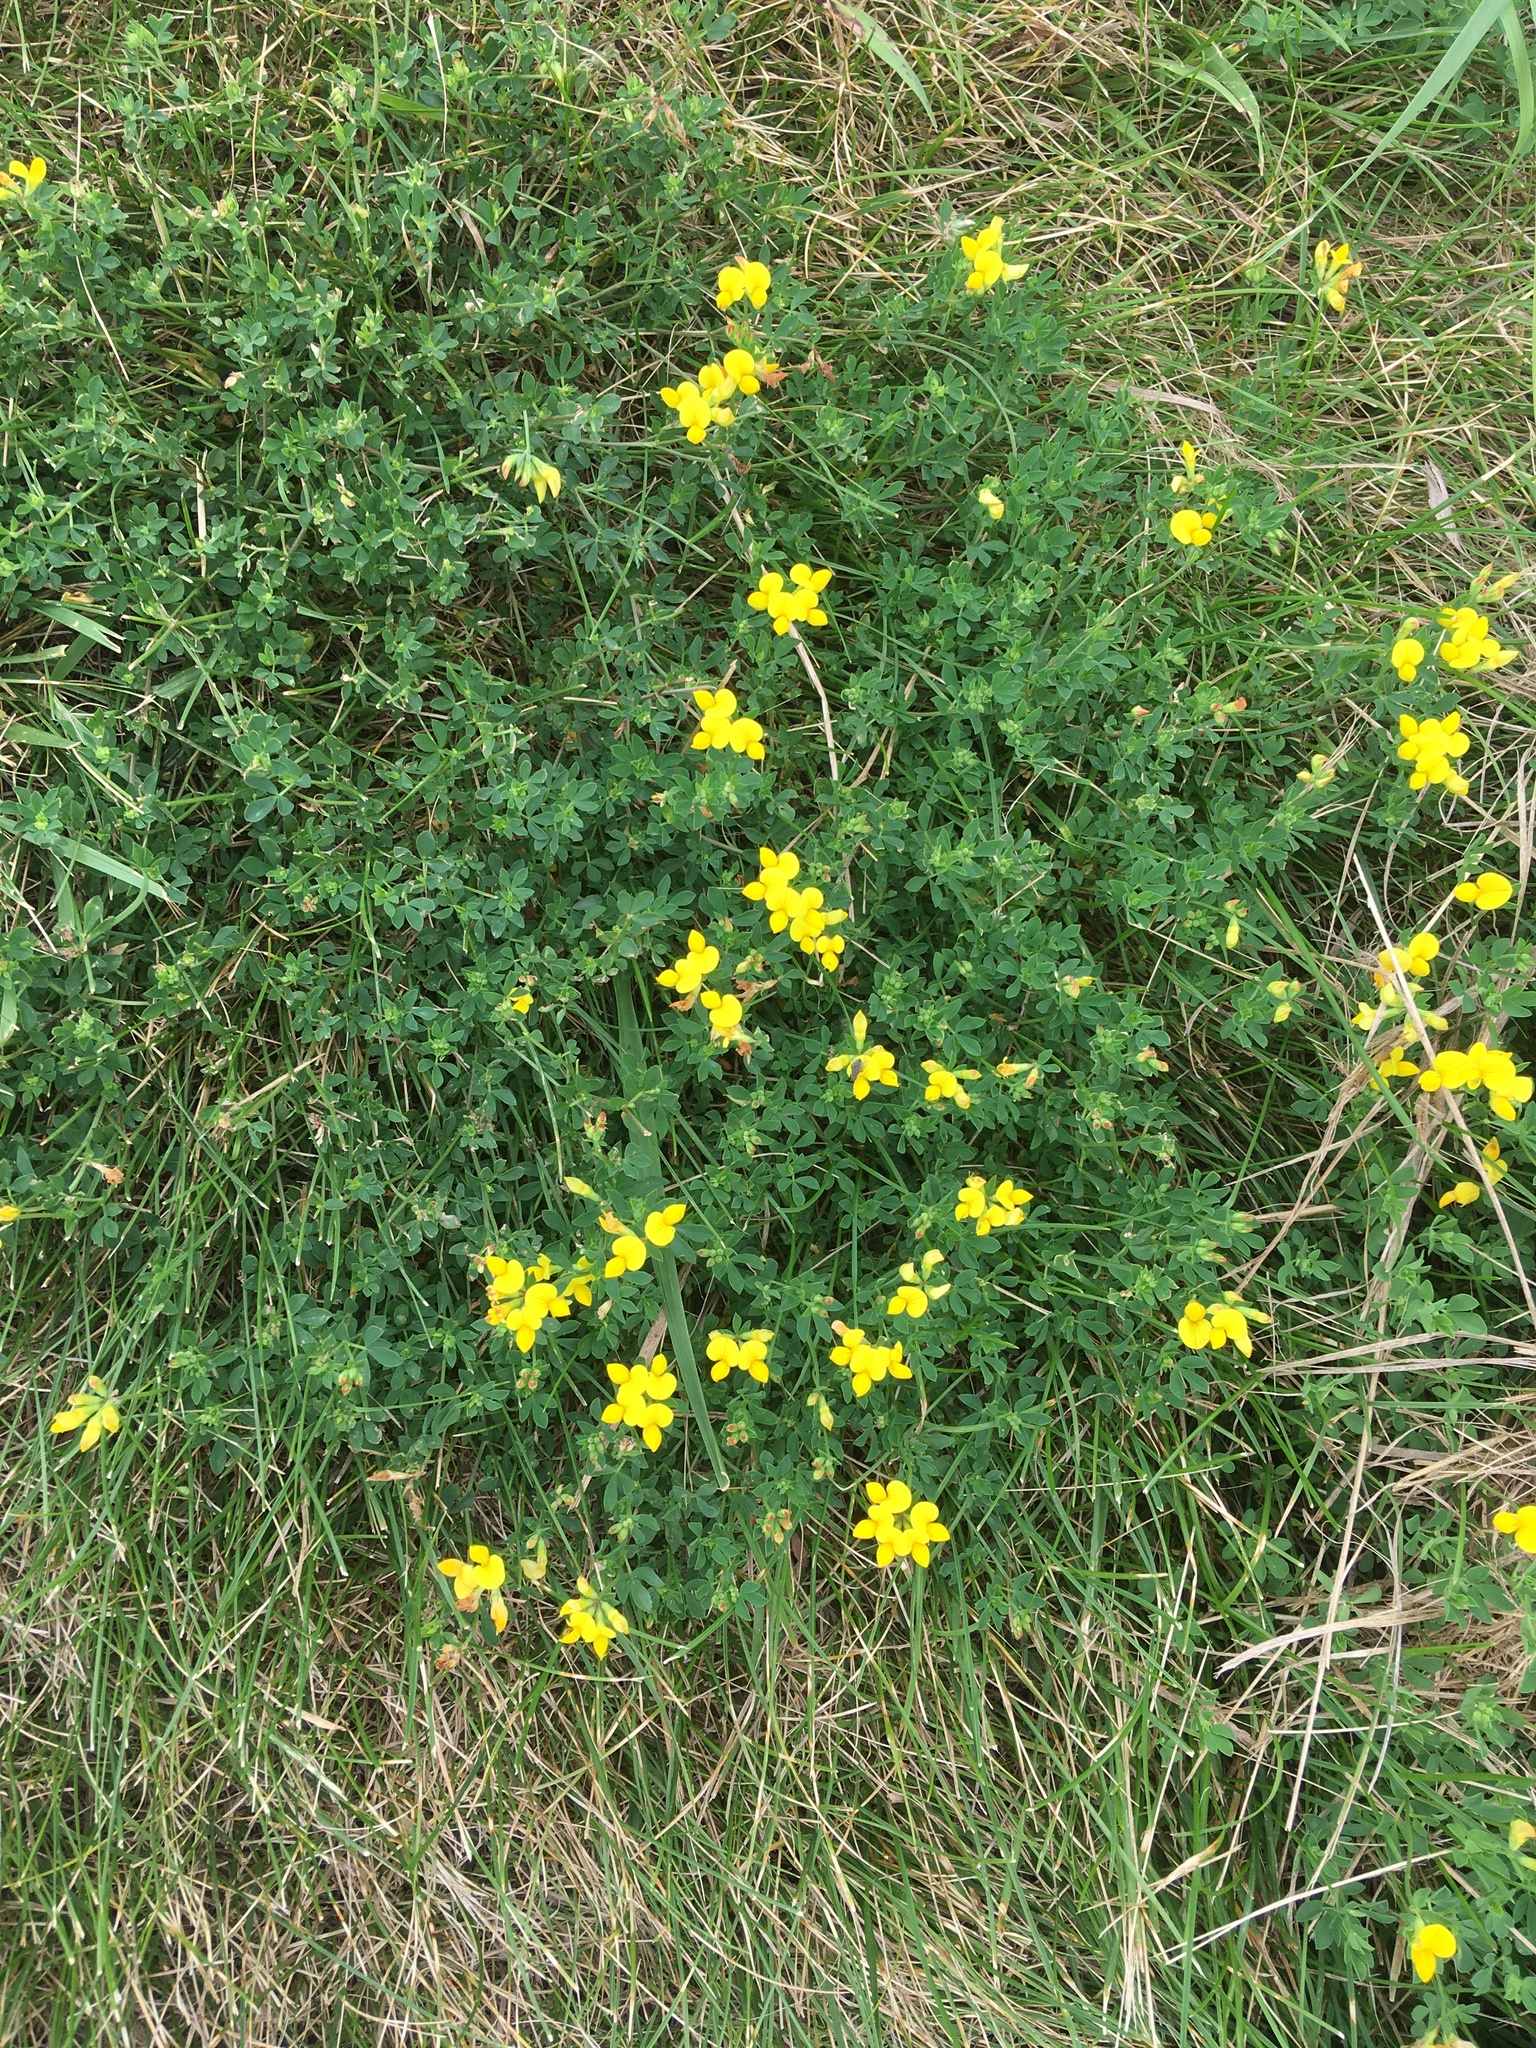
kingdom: Plantae
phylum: Tracheophyta
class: Magnoliopsida
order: Fabales
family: Fabaceae
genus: Lotus
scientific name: Lotus corniculatus
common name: Common bird's-foot-trefoil
